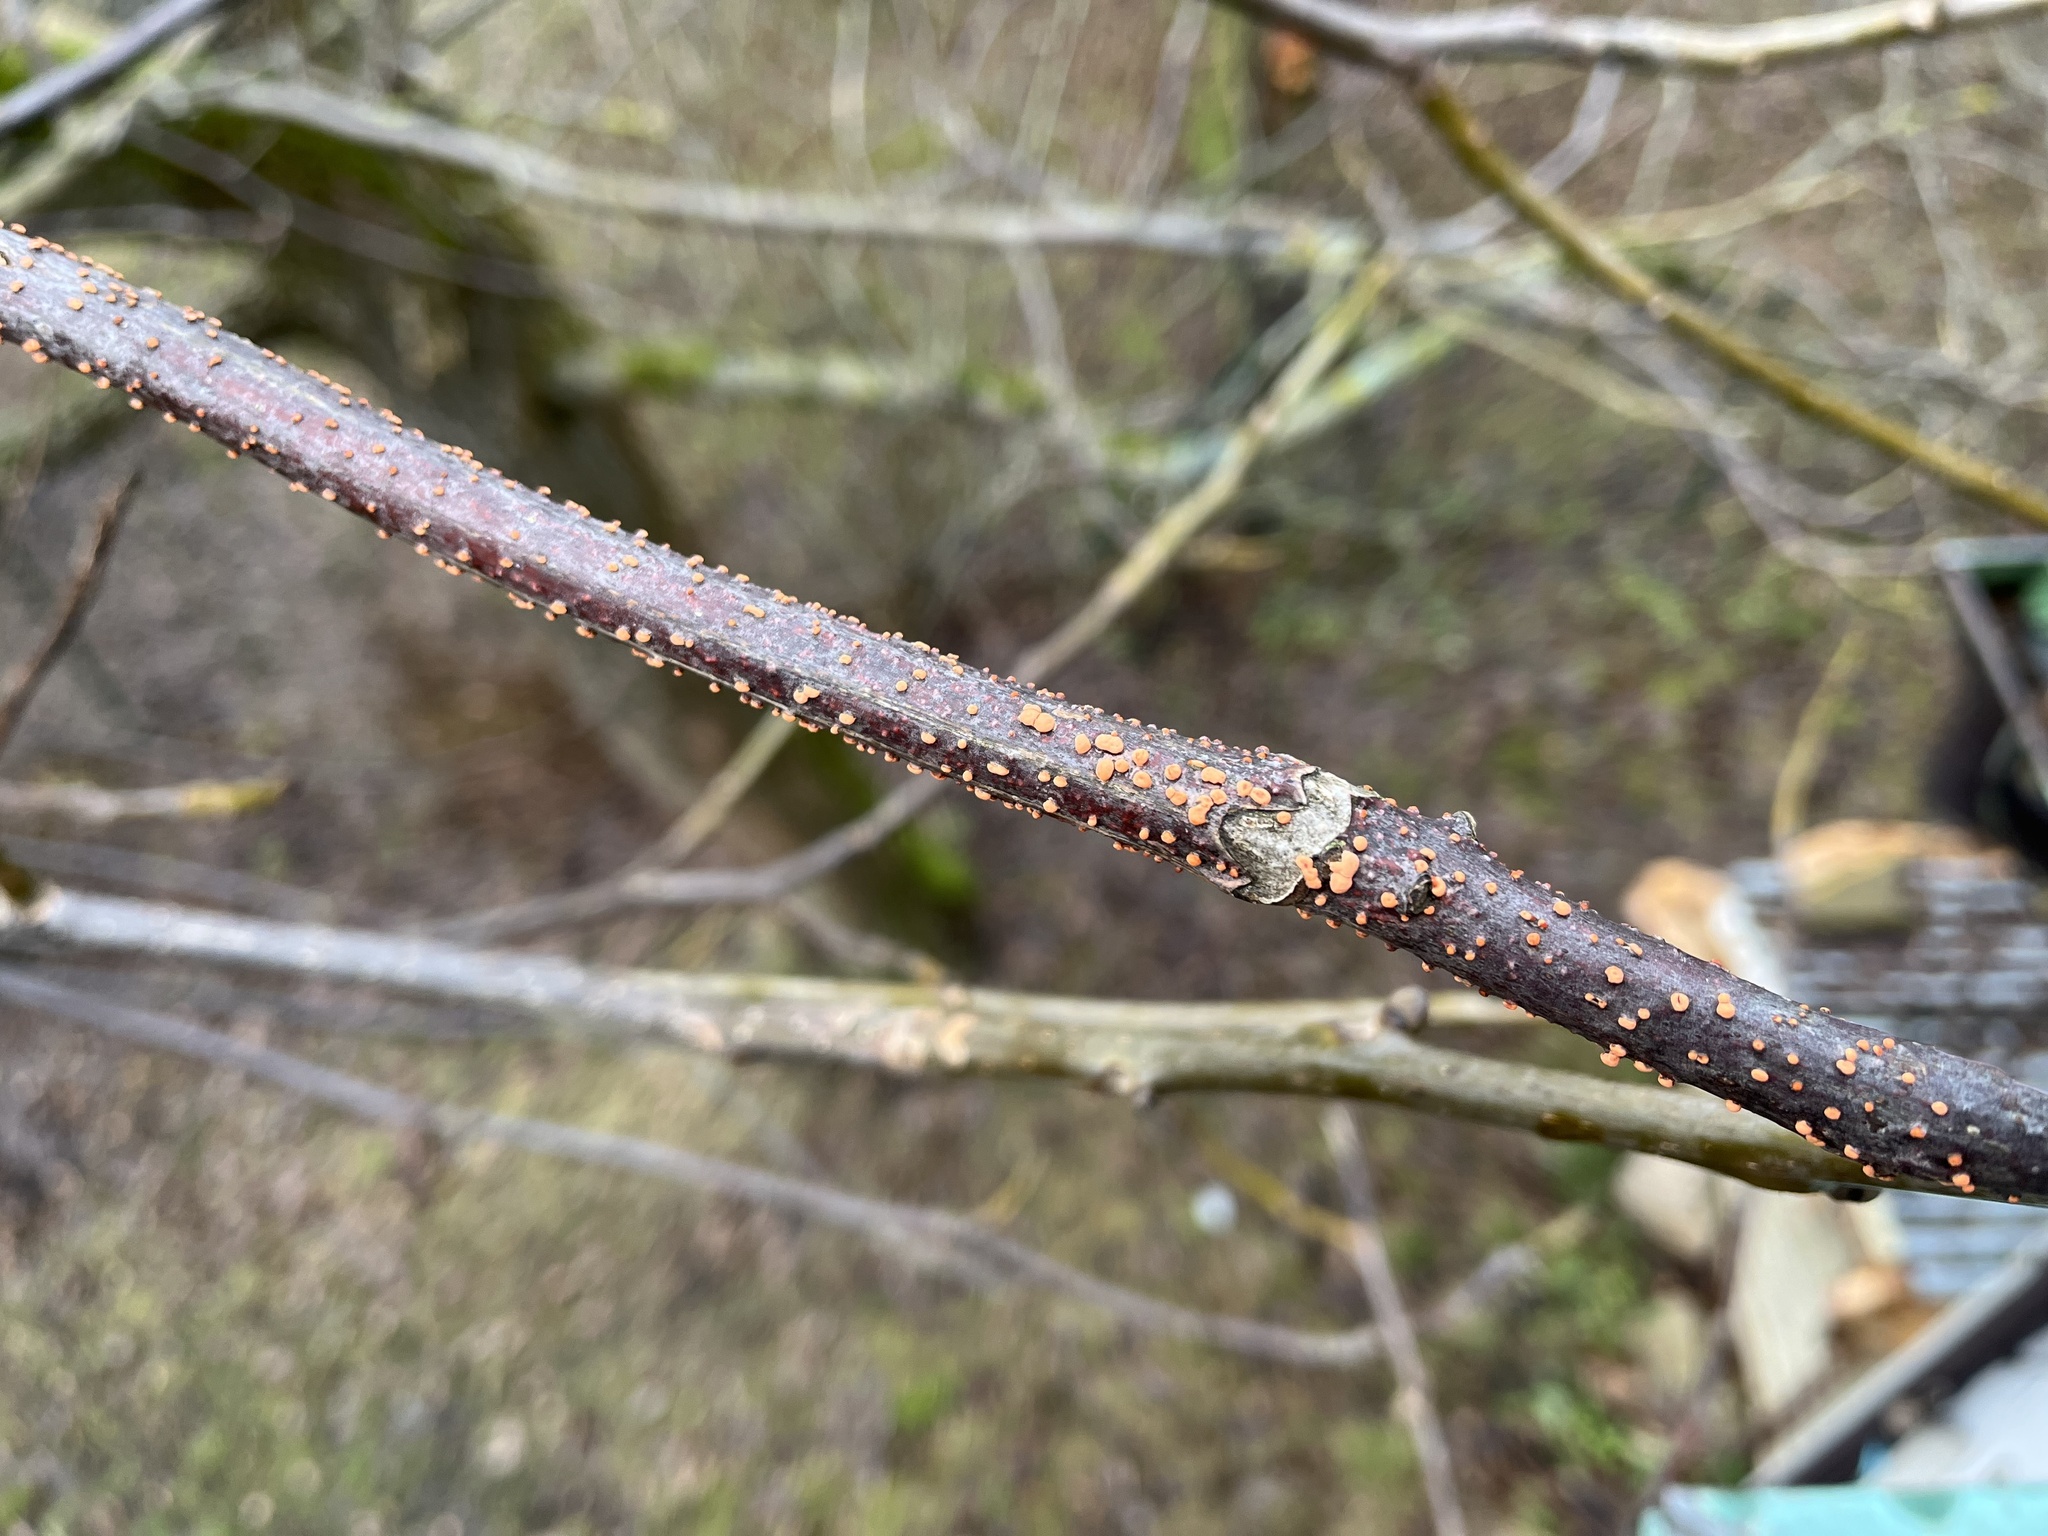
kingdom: Fungi
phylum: Ascomycota
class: Sordariomycetes
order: Hypocreales
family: Nectriaceae
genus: Nectria
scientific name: Nectria
